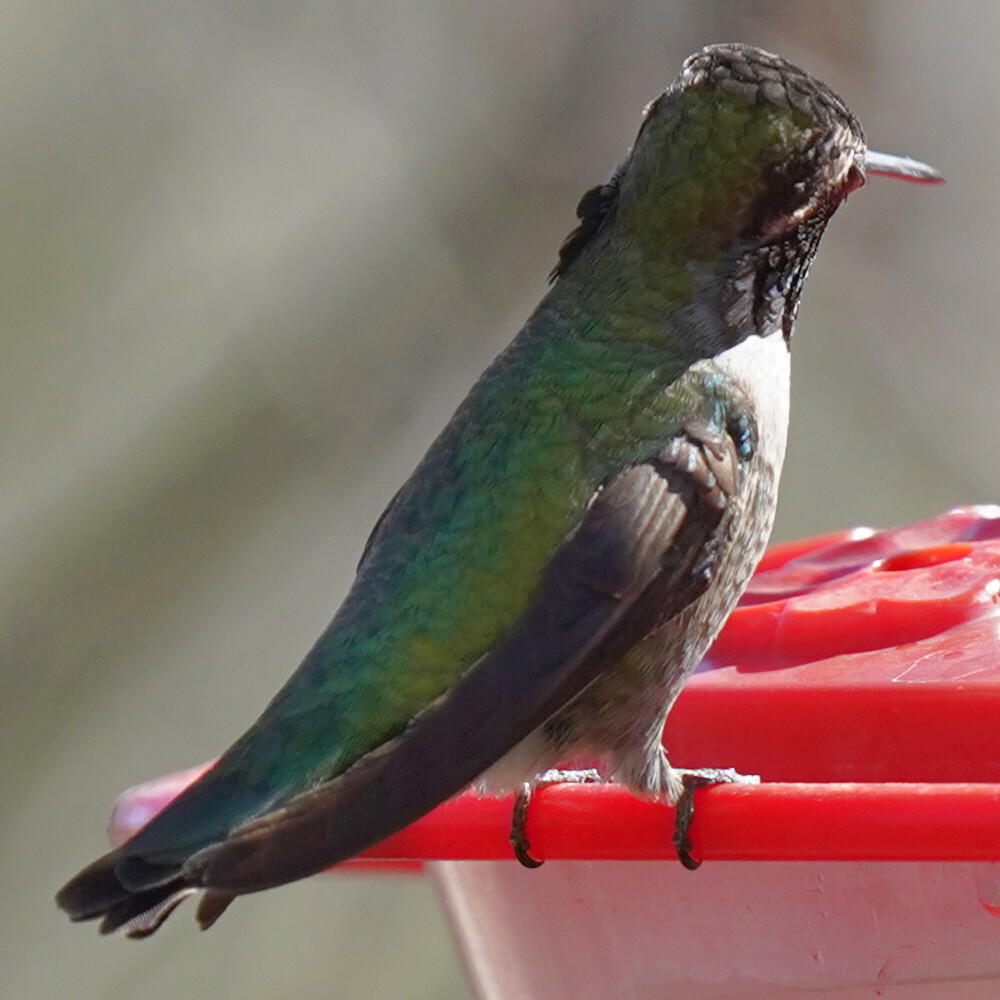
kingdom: Animalia
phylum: Chordata
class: Aves
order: Apodiformes
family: Trochilidae
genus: Calypte
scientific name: Calypte anna
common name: Anna's hummingbird
